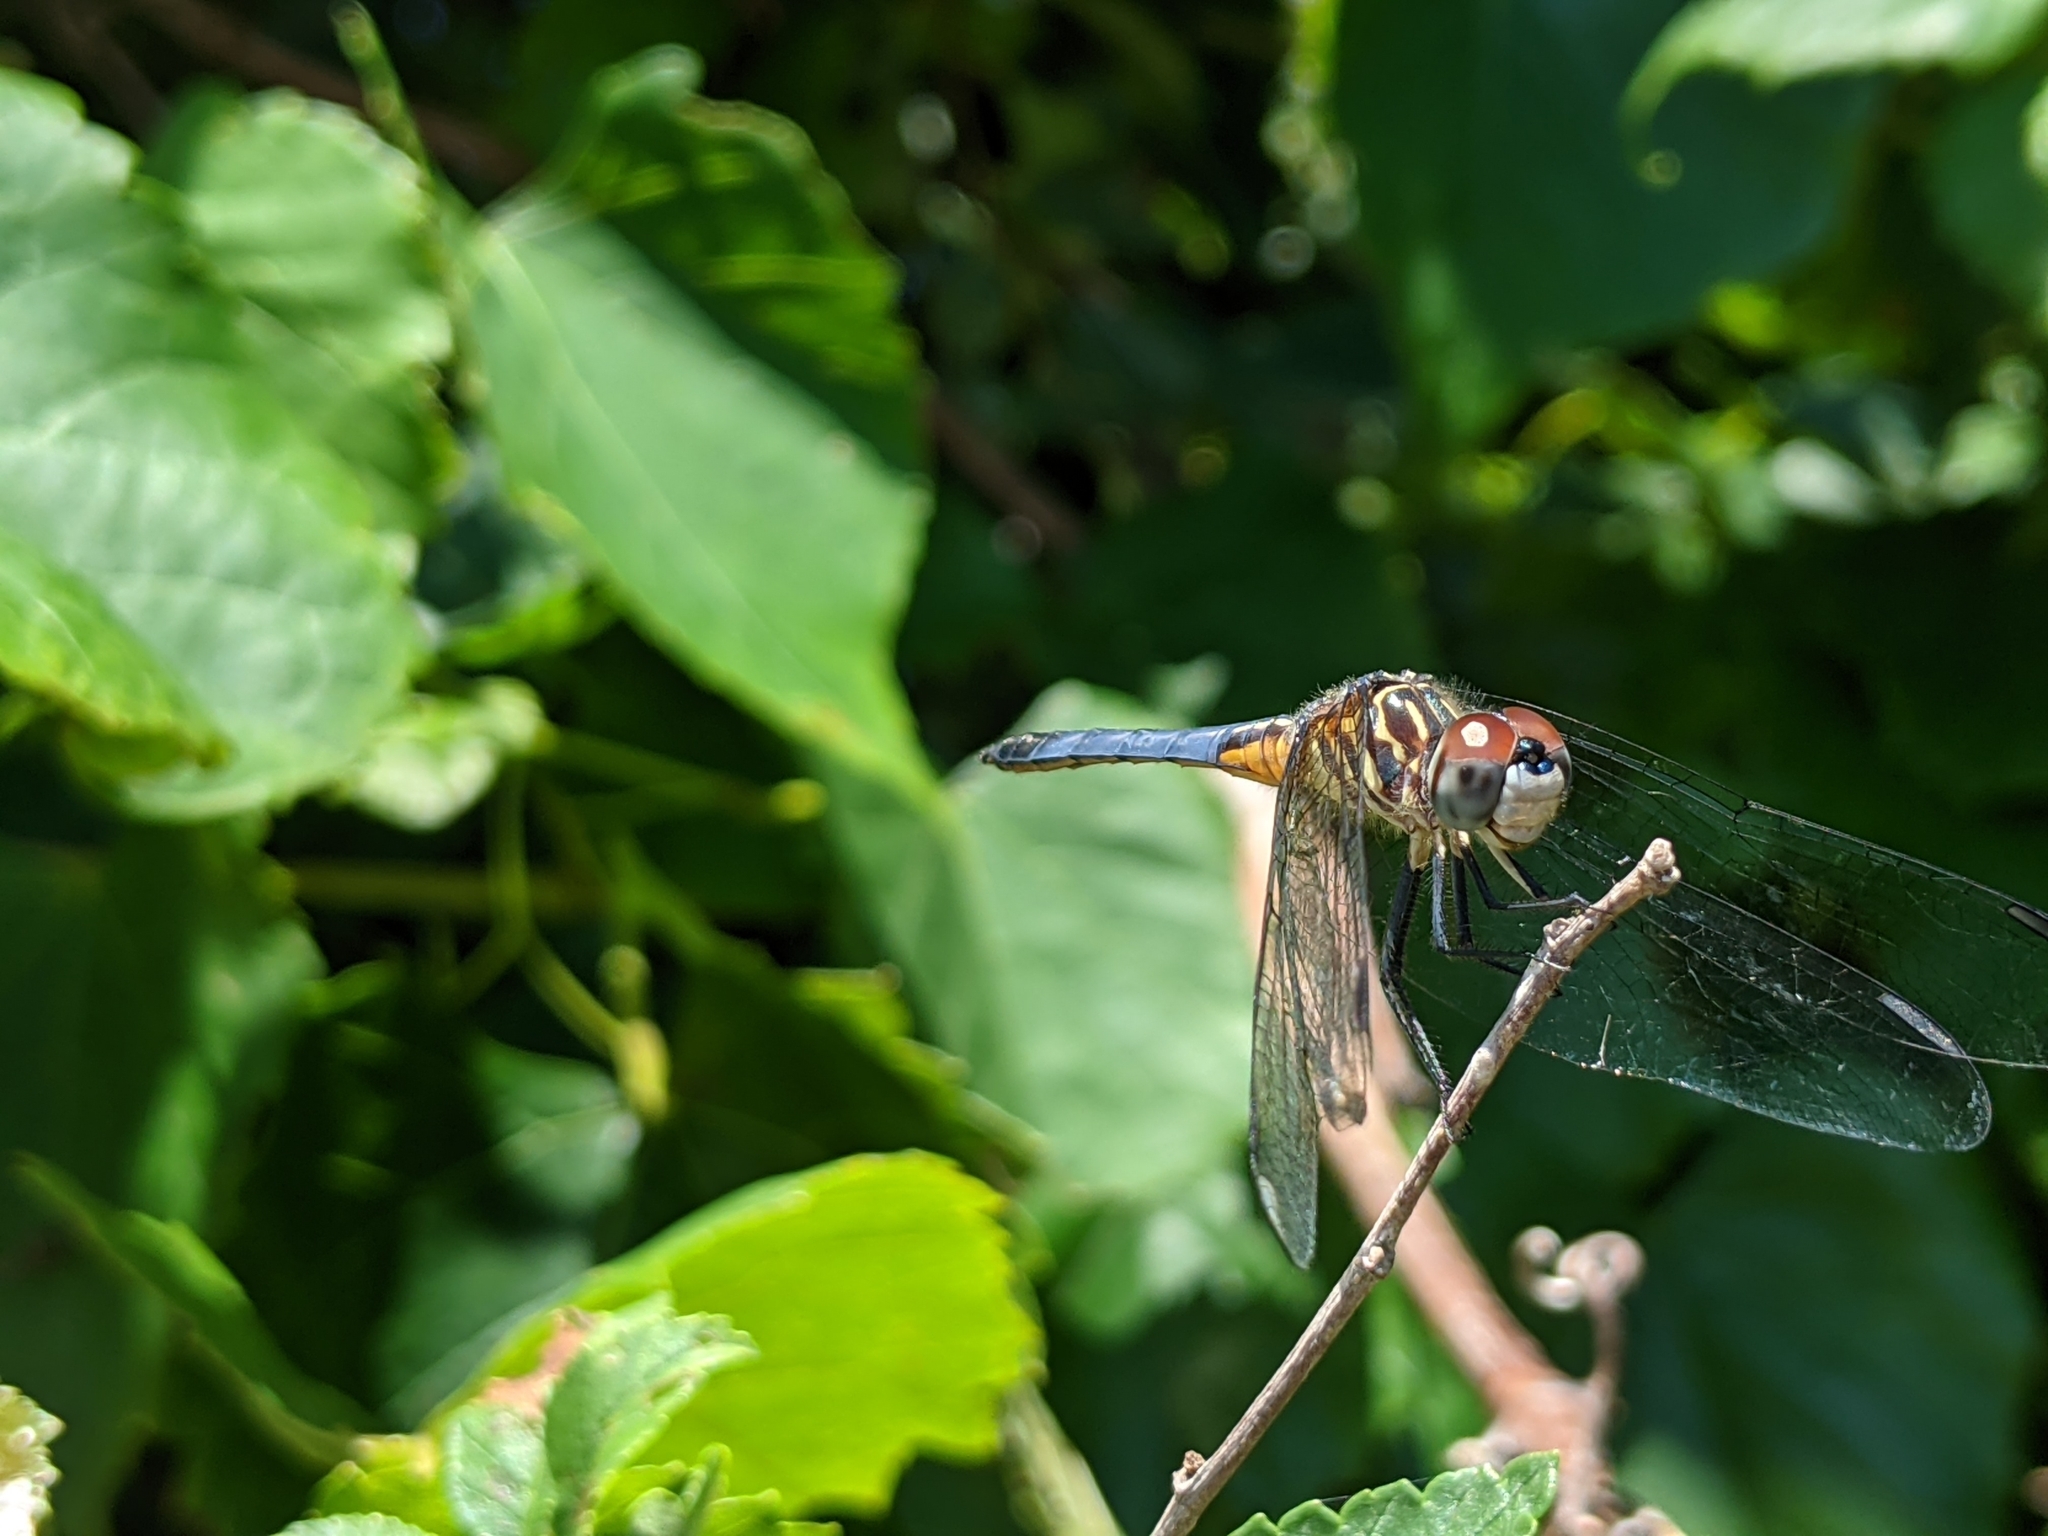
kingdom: Animalia
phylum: Arthropoda
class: Insecta
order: Odonata
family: Libellulidae
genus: Pachydiplax
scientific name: Pachydiplax longipennis
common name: Blue dasher
